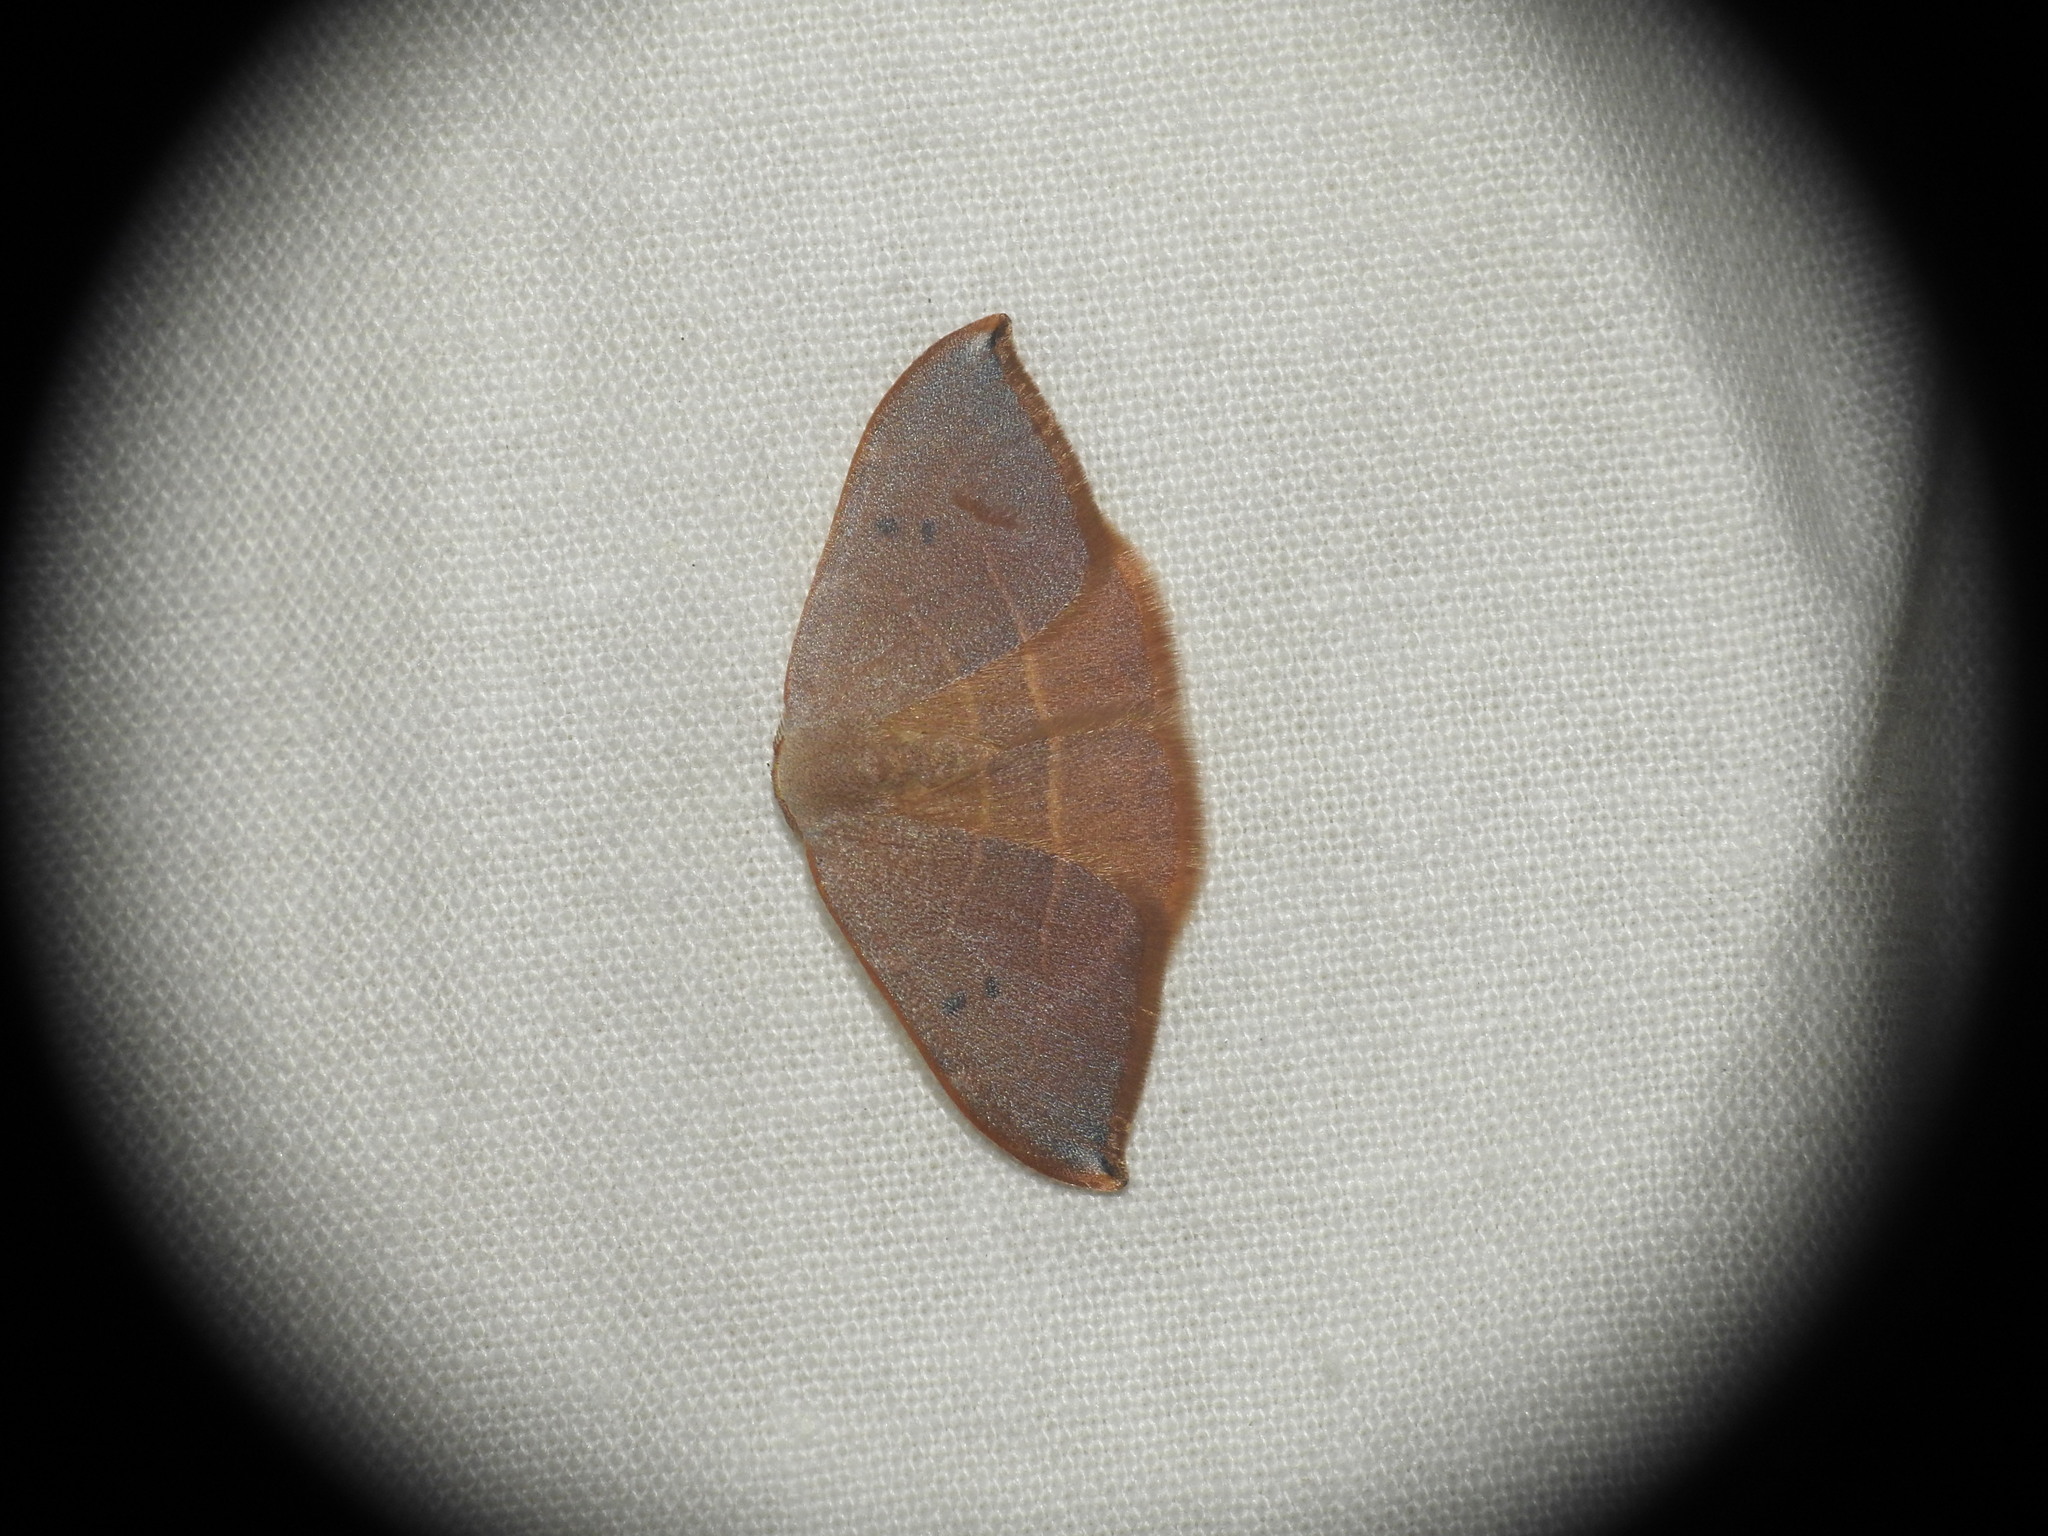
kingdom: Animalia
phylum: Arthropoda
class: Insecta
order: Lepidoptera
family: Drepanidae
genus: Watsonalla
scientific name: Watsonalla uncinula
